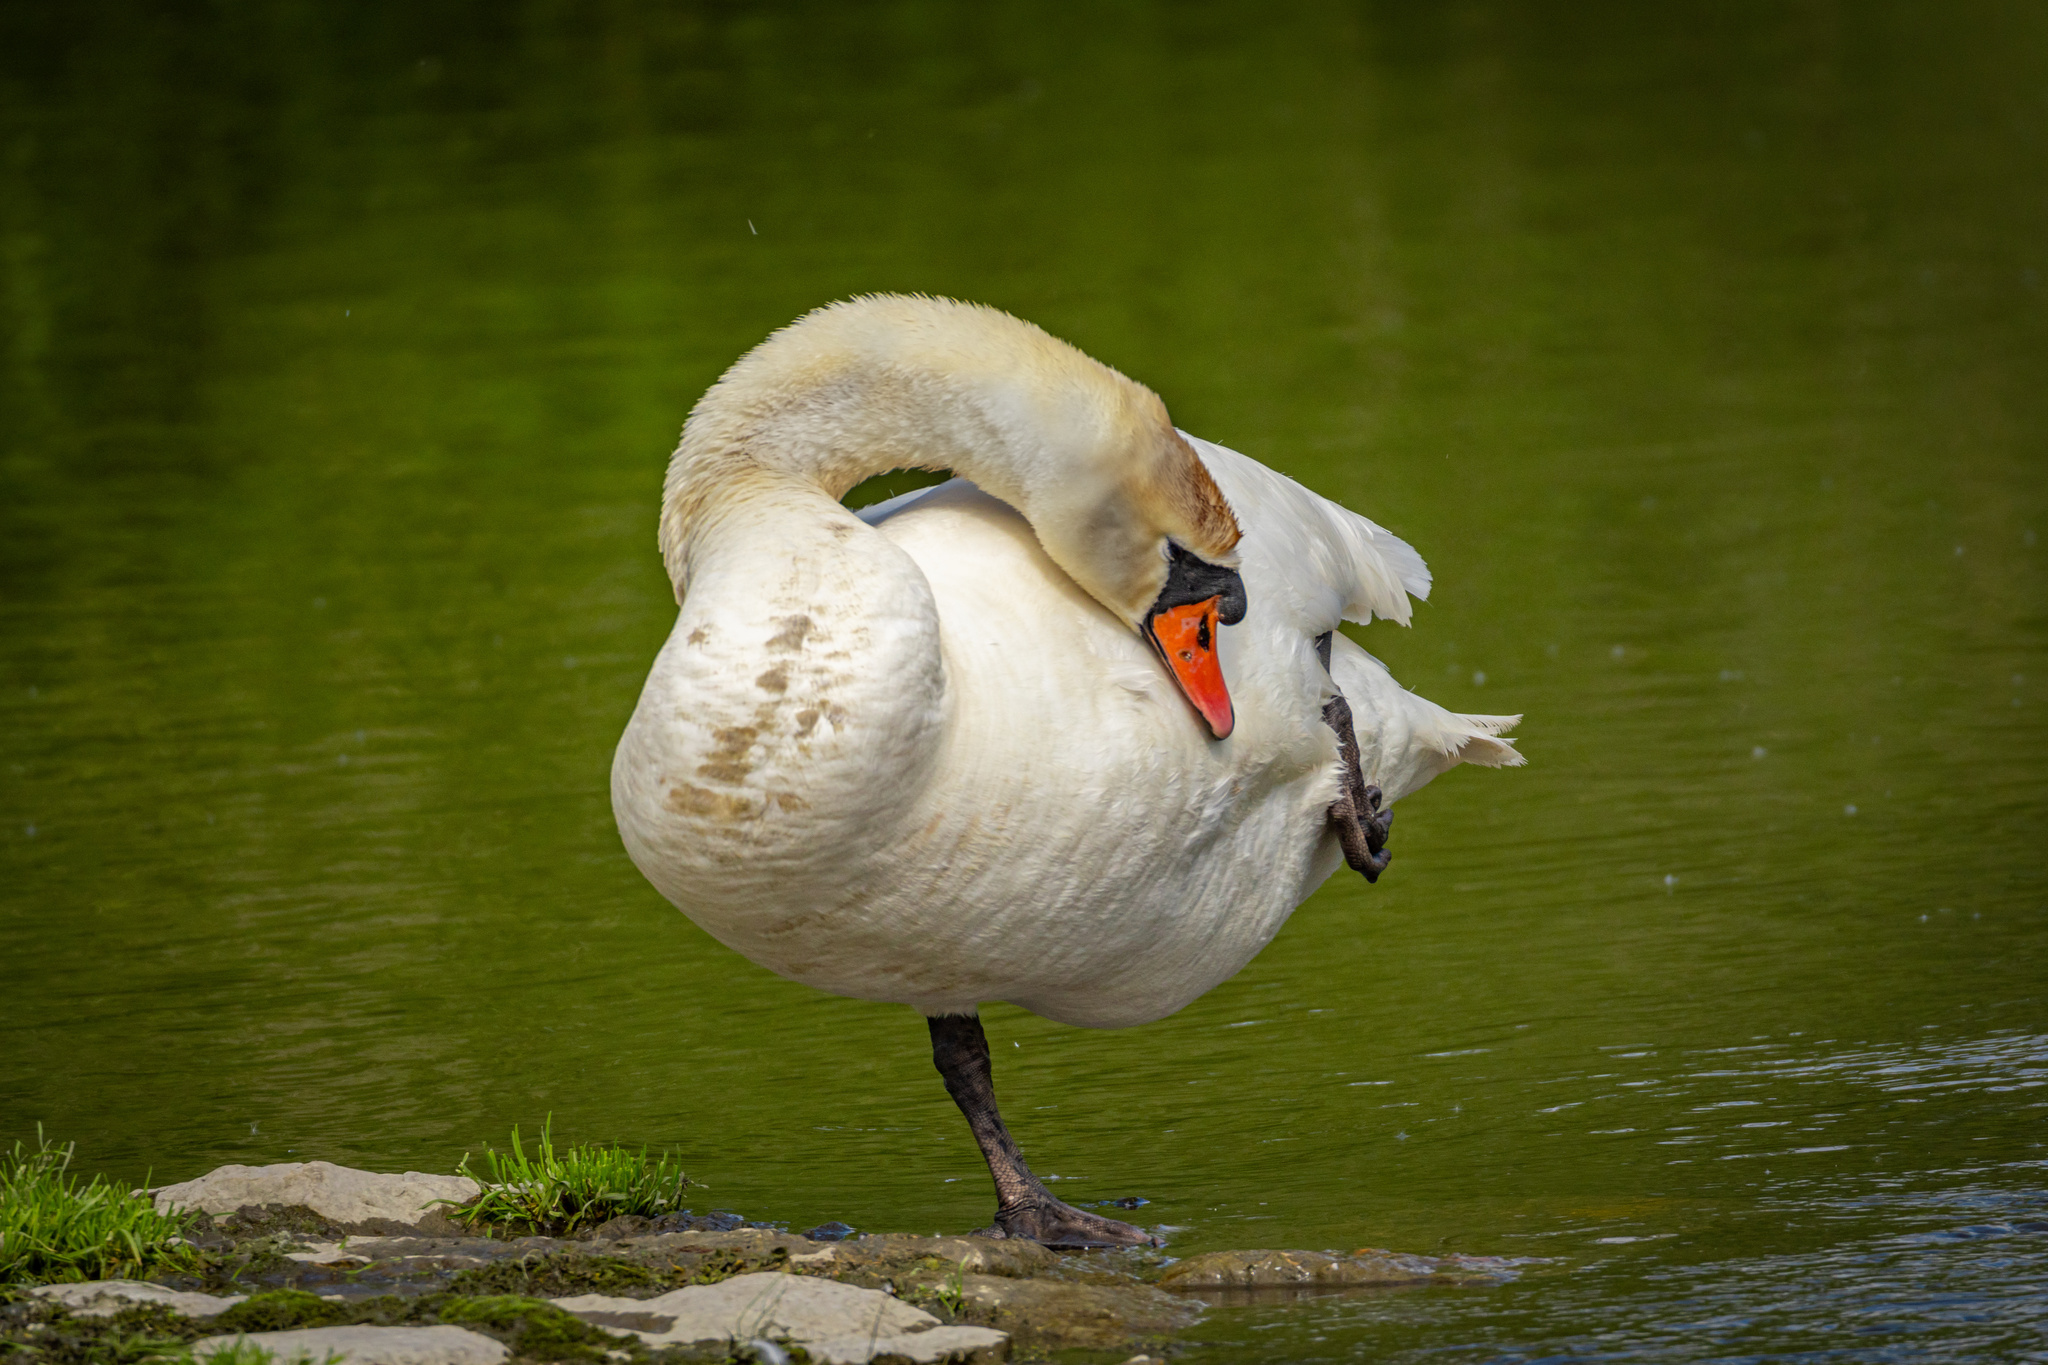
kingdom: Animalia
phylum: Chordata
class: Aves
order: Anseriformes
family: Anatidae
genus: Cygnus
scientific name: Cygnus olor
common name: Mute swan
